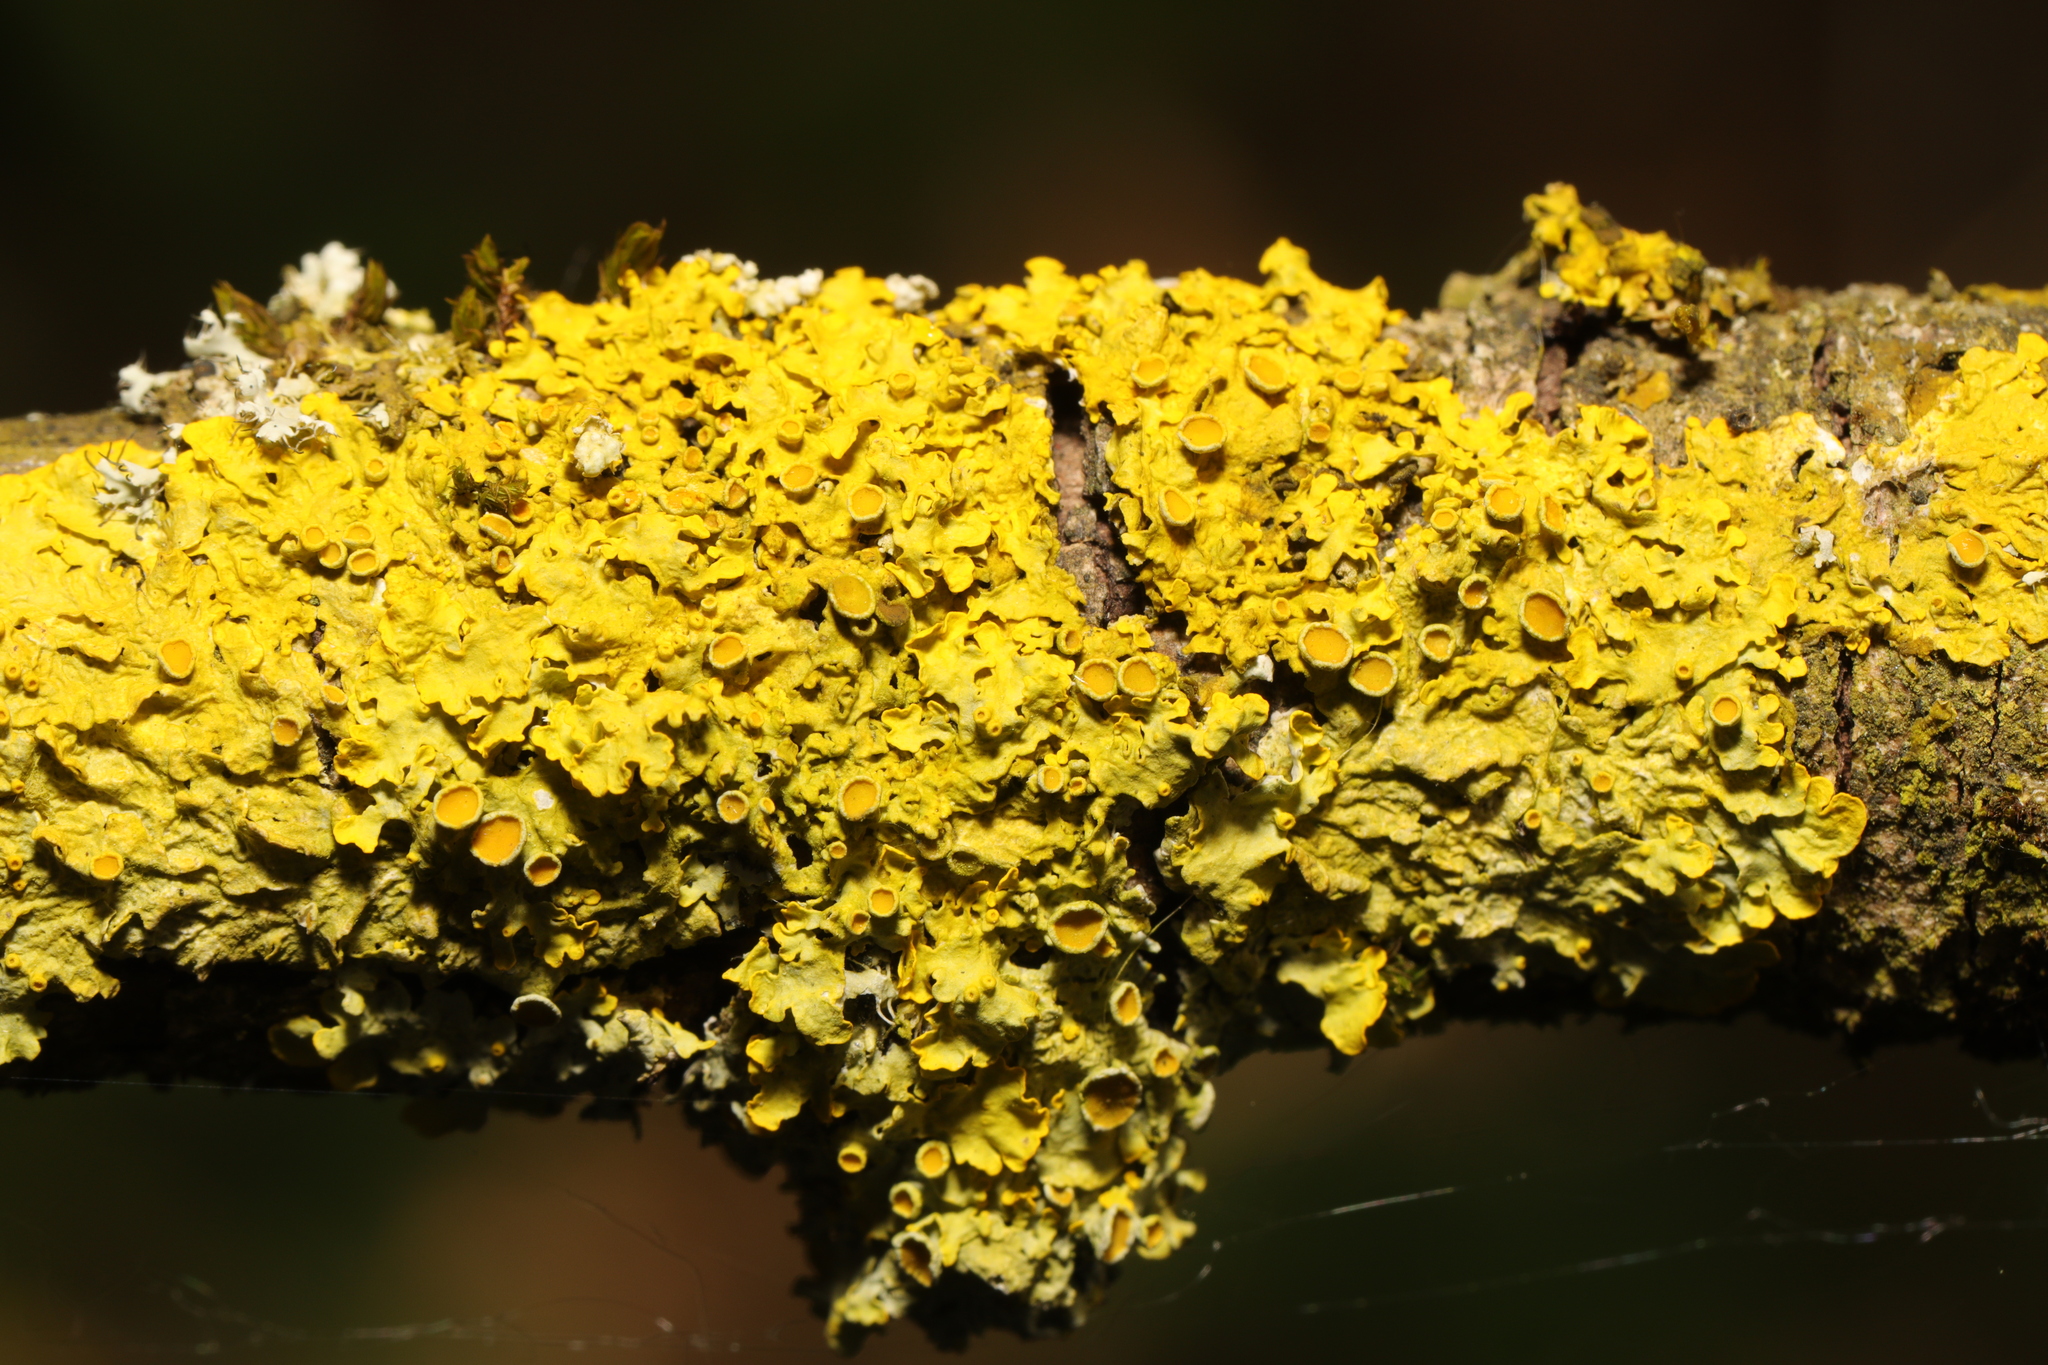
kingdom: Fungi
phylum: Ascomycota
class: Lecanoromycetes
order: Teloschistales
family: Teloschistaceae
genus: Xanthoria
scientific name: Xanthoria parietina
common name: Common orange lichen
